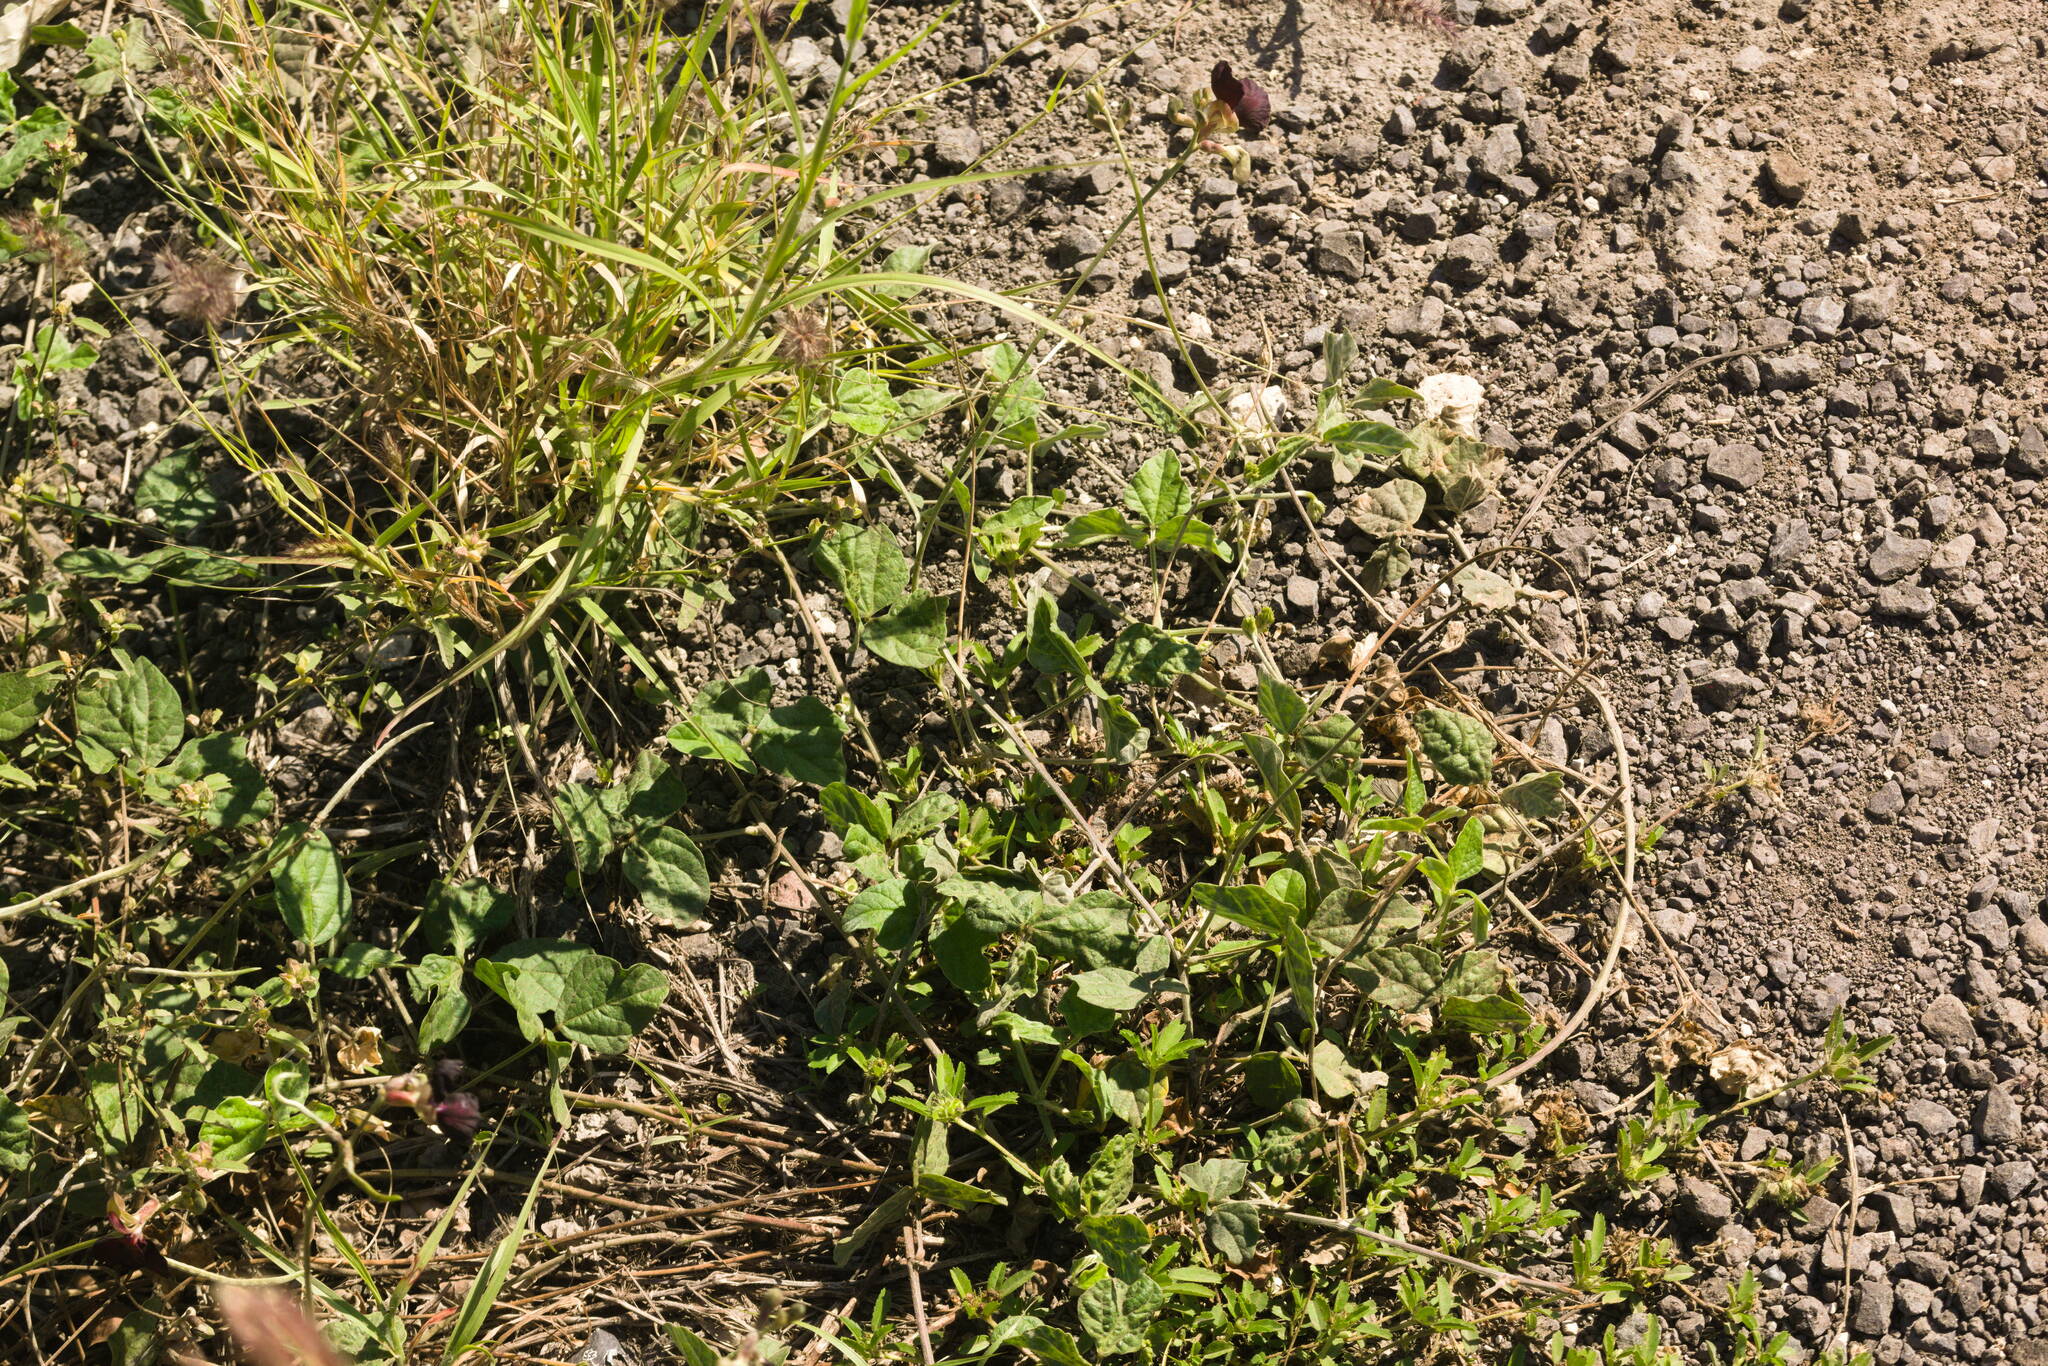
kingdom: Plantae
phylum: Tracheophyta
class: Magnoliopsida
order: Fabales
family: Fabaceae
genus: Macroptilium
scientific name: Macroptilium atropurpureum
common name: Purple bushbean
